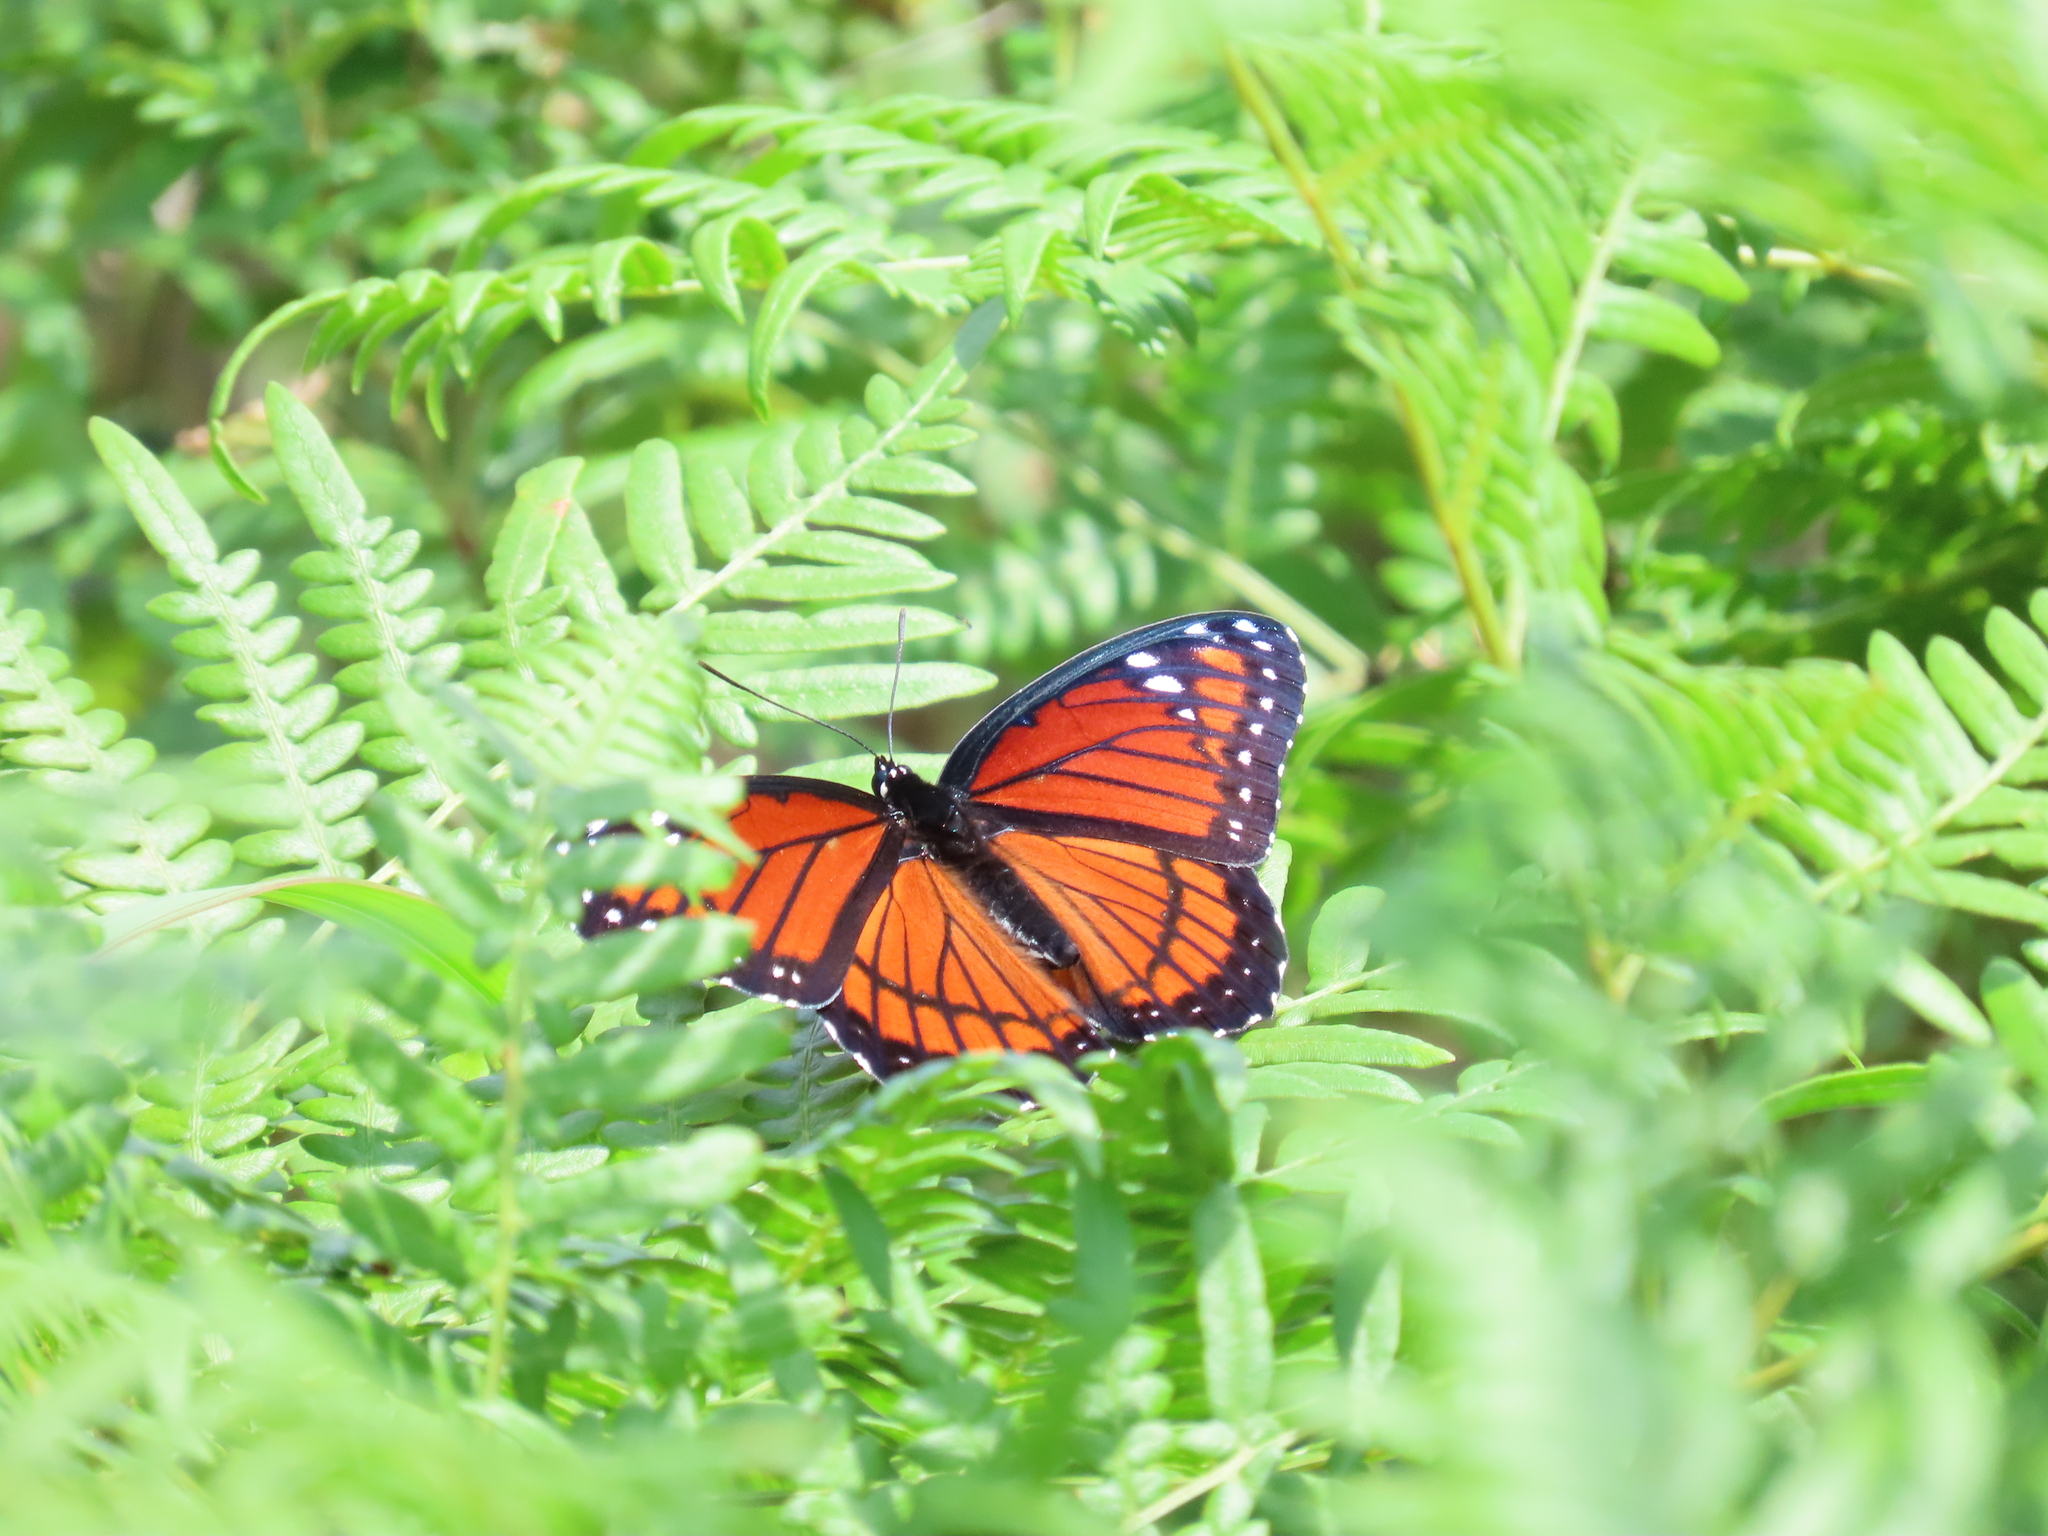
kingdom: Animalia
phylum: Arthropoda
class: Insecta
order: Lepidoptera
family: Nymphalidae
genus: Limenitis
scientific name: Limenitis archippus
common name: Viceroy
